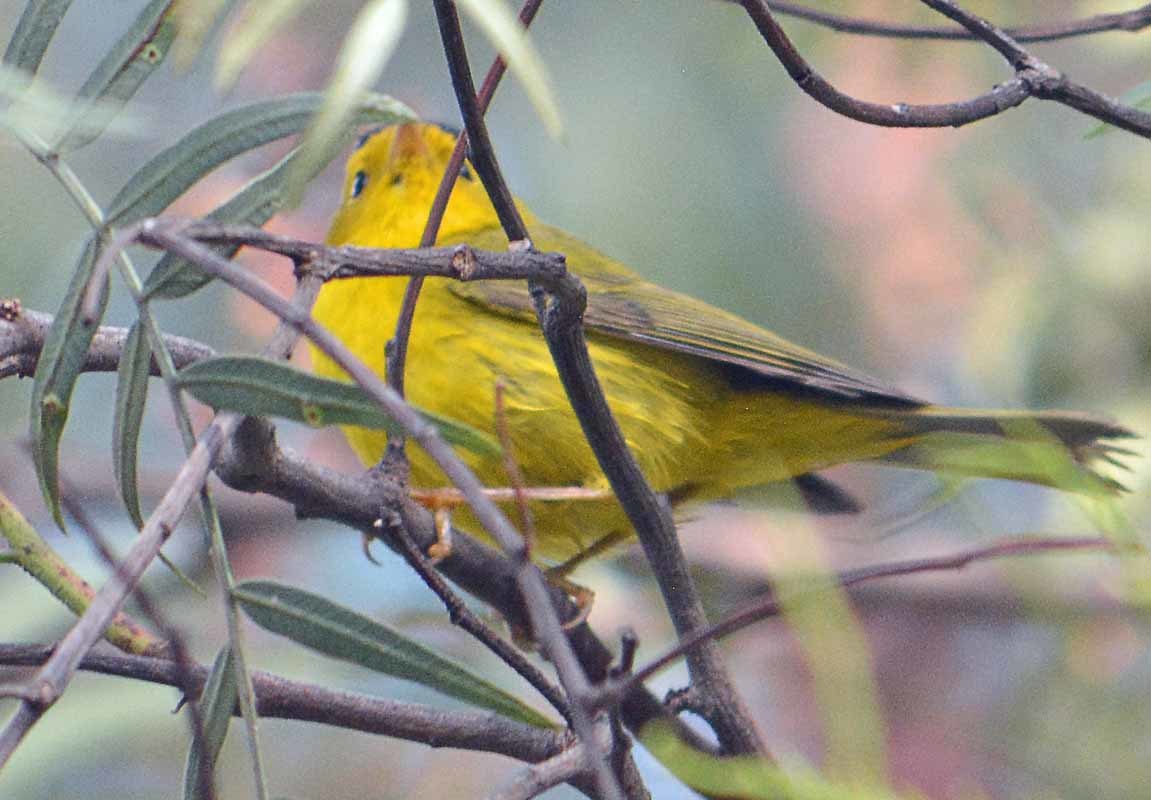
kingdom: Animalia
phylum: Chordata
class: Aves
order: Passeriformes
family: Parulidae
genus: Cardellina
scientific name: Cardellina pusilla
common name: Wilson's warbler
